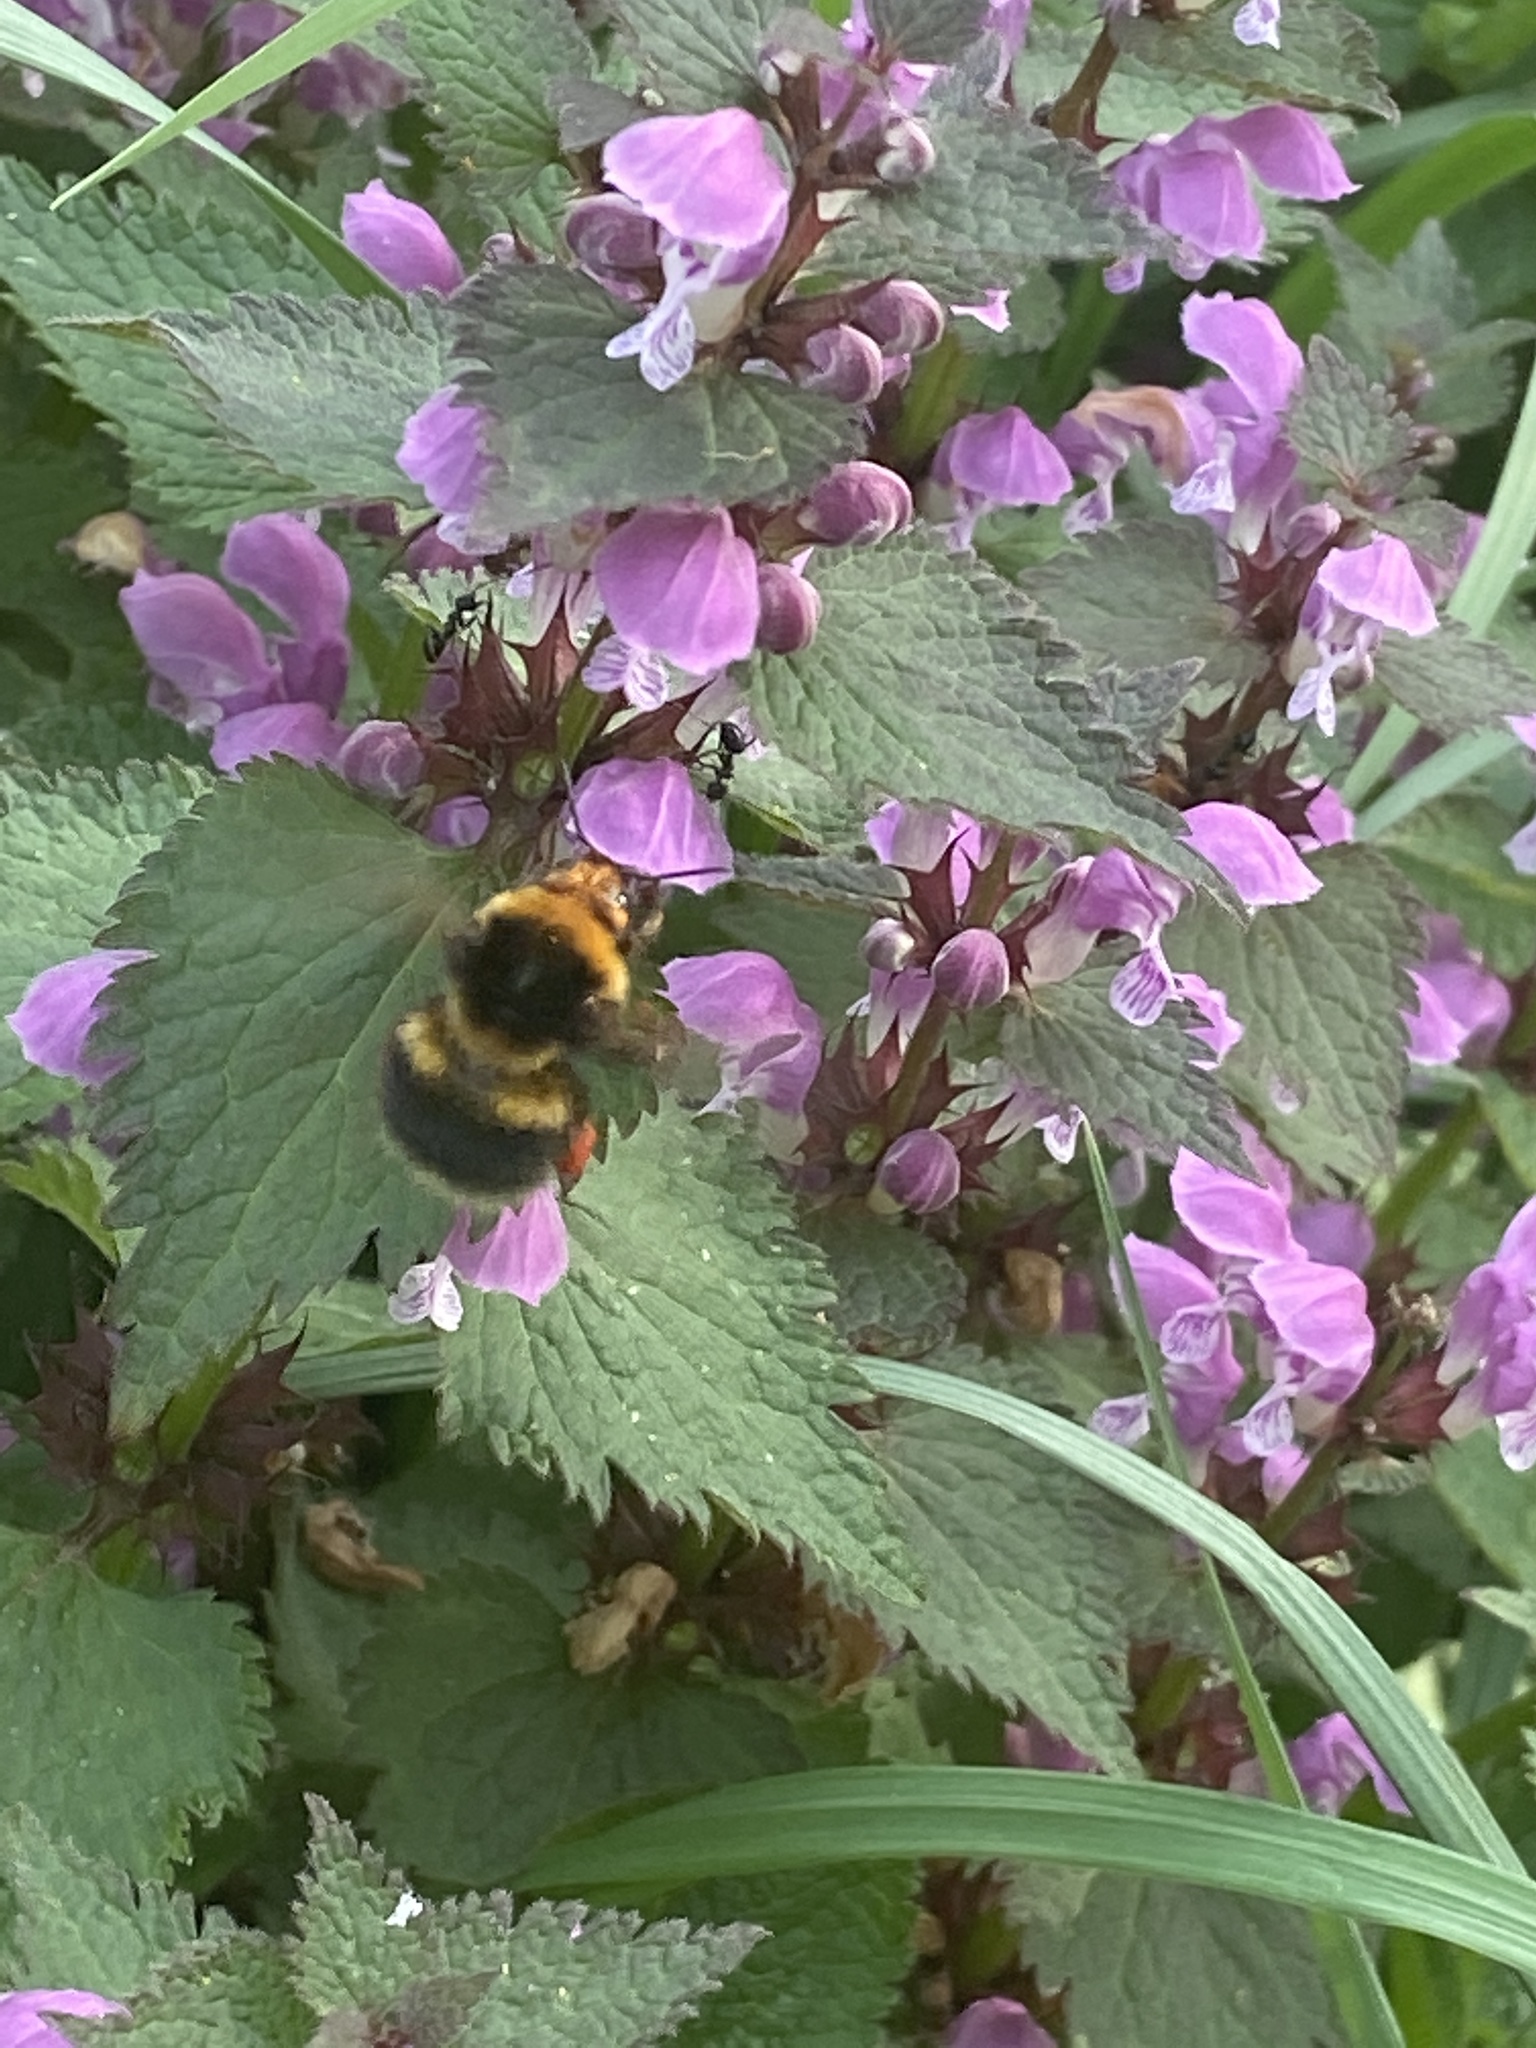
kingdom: Animalia
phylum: Arthropoda
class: Insecta
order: Hymenoptera
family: Apidae
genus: Bombus
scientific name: Bombus hortorum
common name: Garden bumblebee
